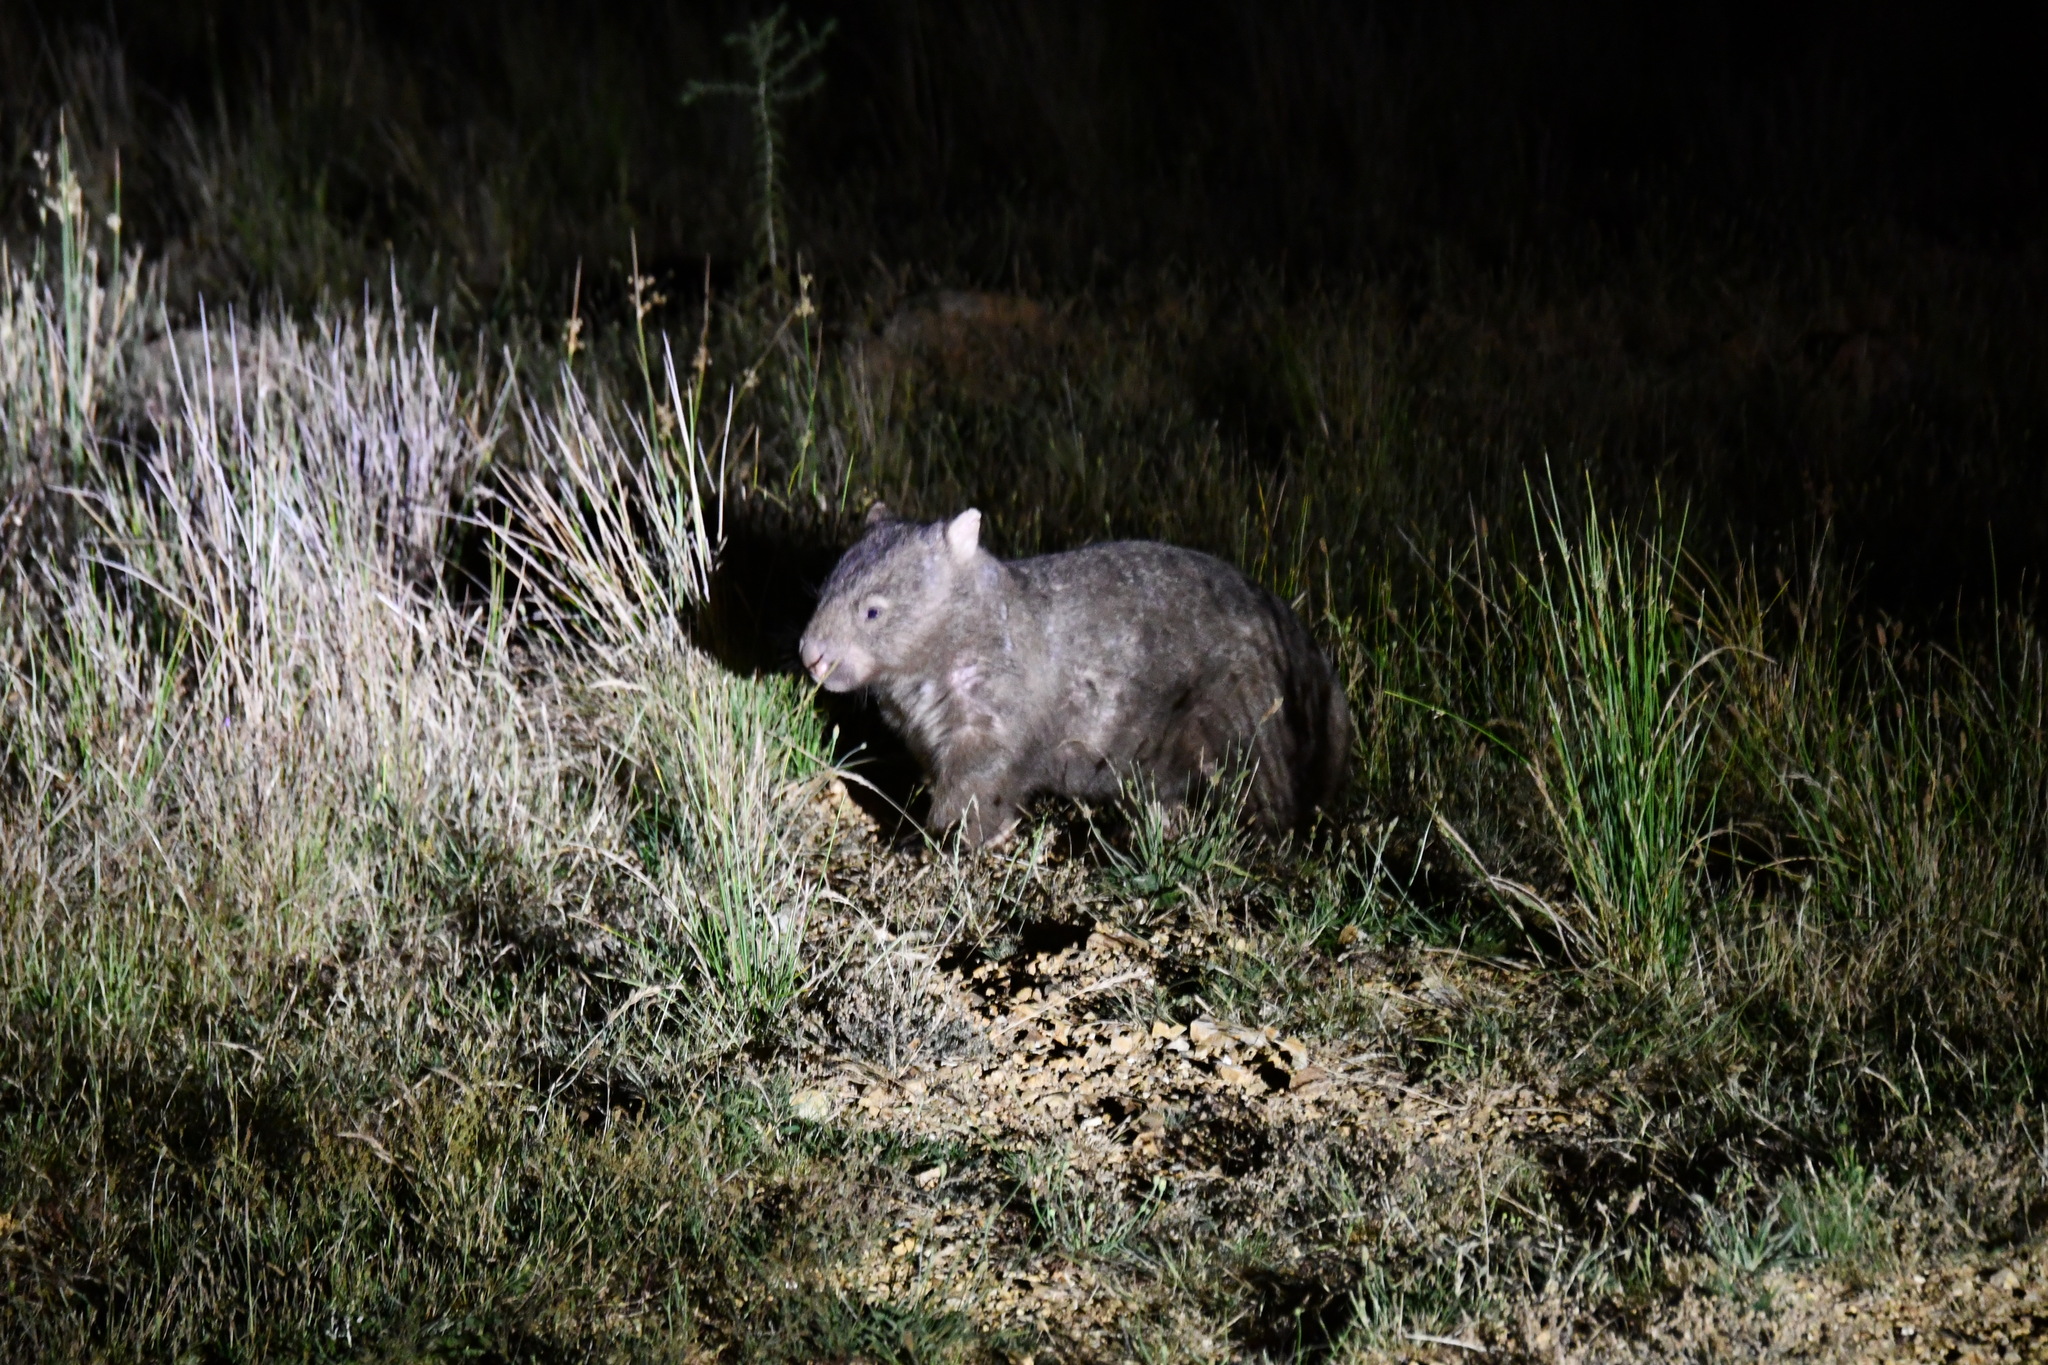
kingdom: Animalia
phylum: Chordata
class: Mammalia
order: Diprotodontia
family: Vombatidae
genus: Vombatus
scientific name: Vombatus ursinus
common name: Common wombat
